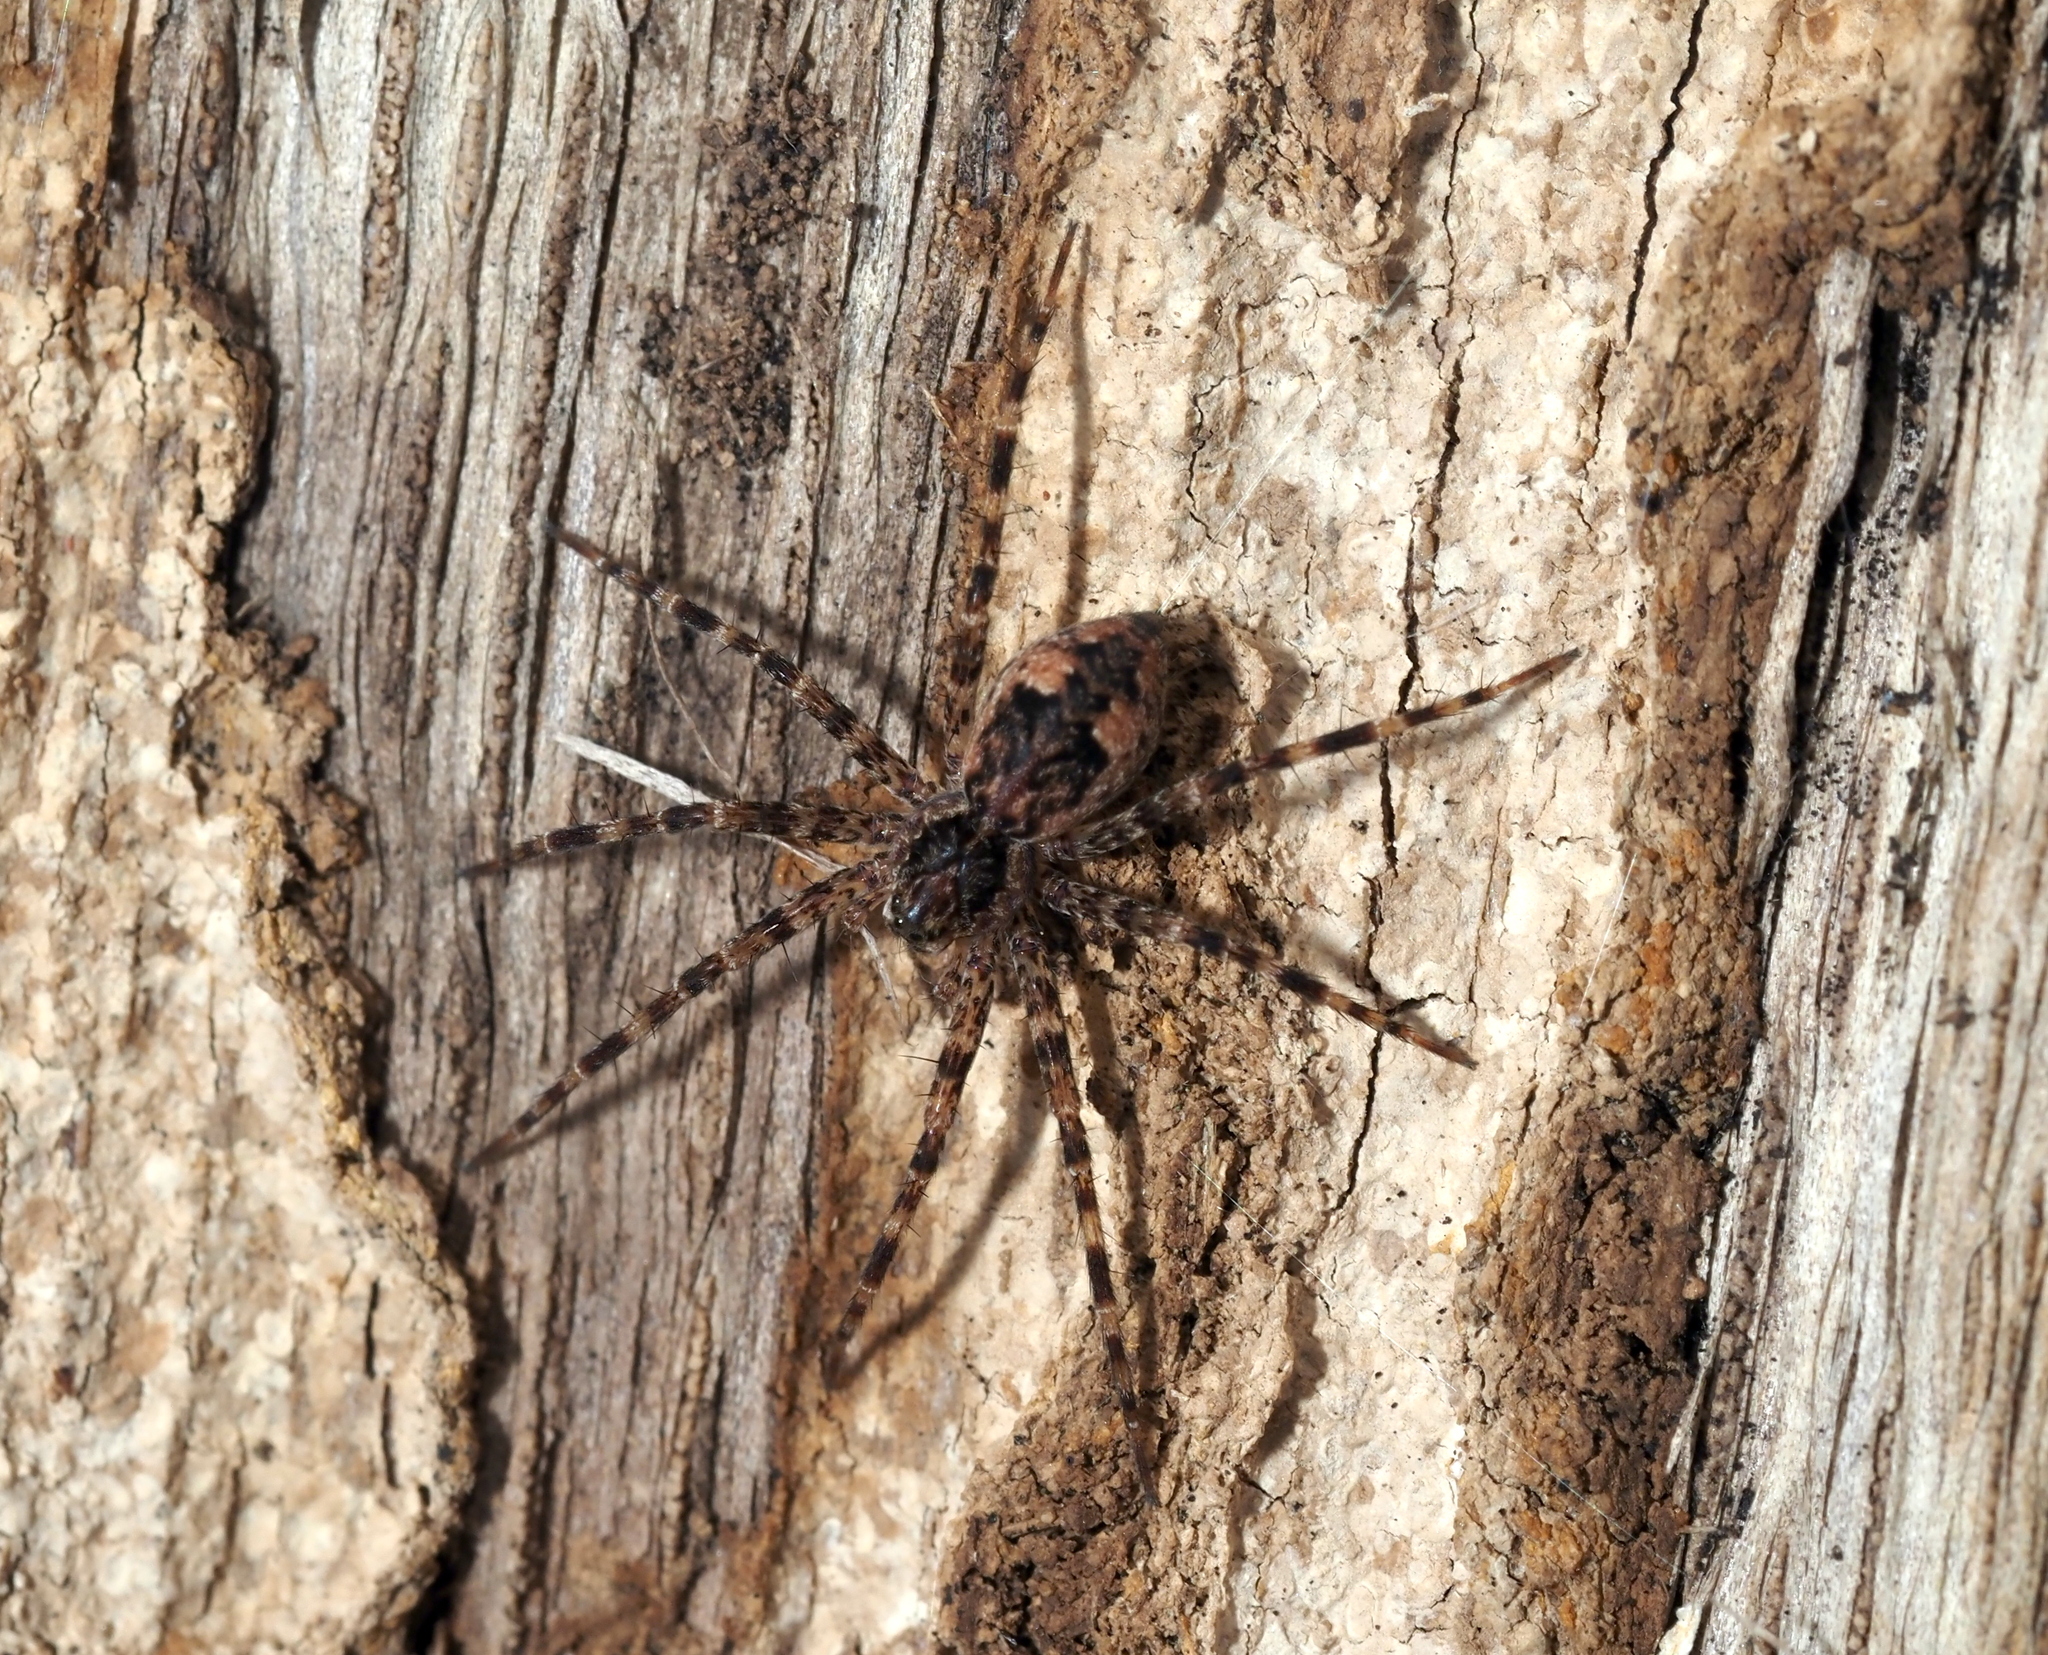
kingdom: Animalia
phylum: Arthropoda
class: Arachnida
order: Araneae
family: Pisauridae
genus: Dolomedes
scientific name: Dolomedes tenebrosus
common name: Dark fishing spider
